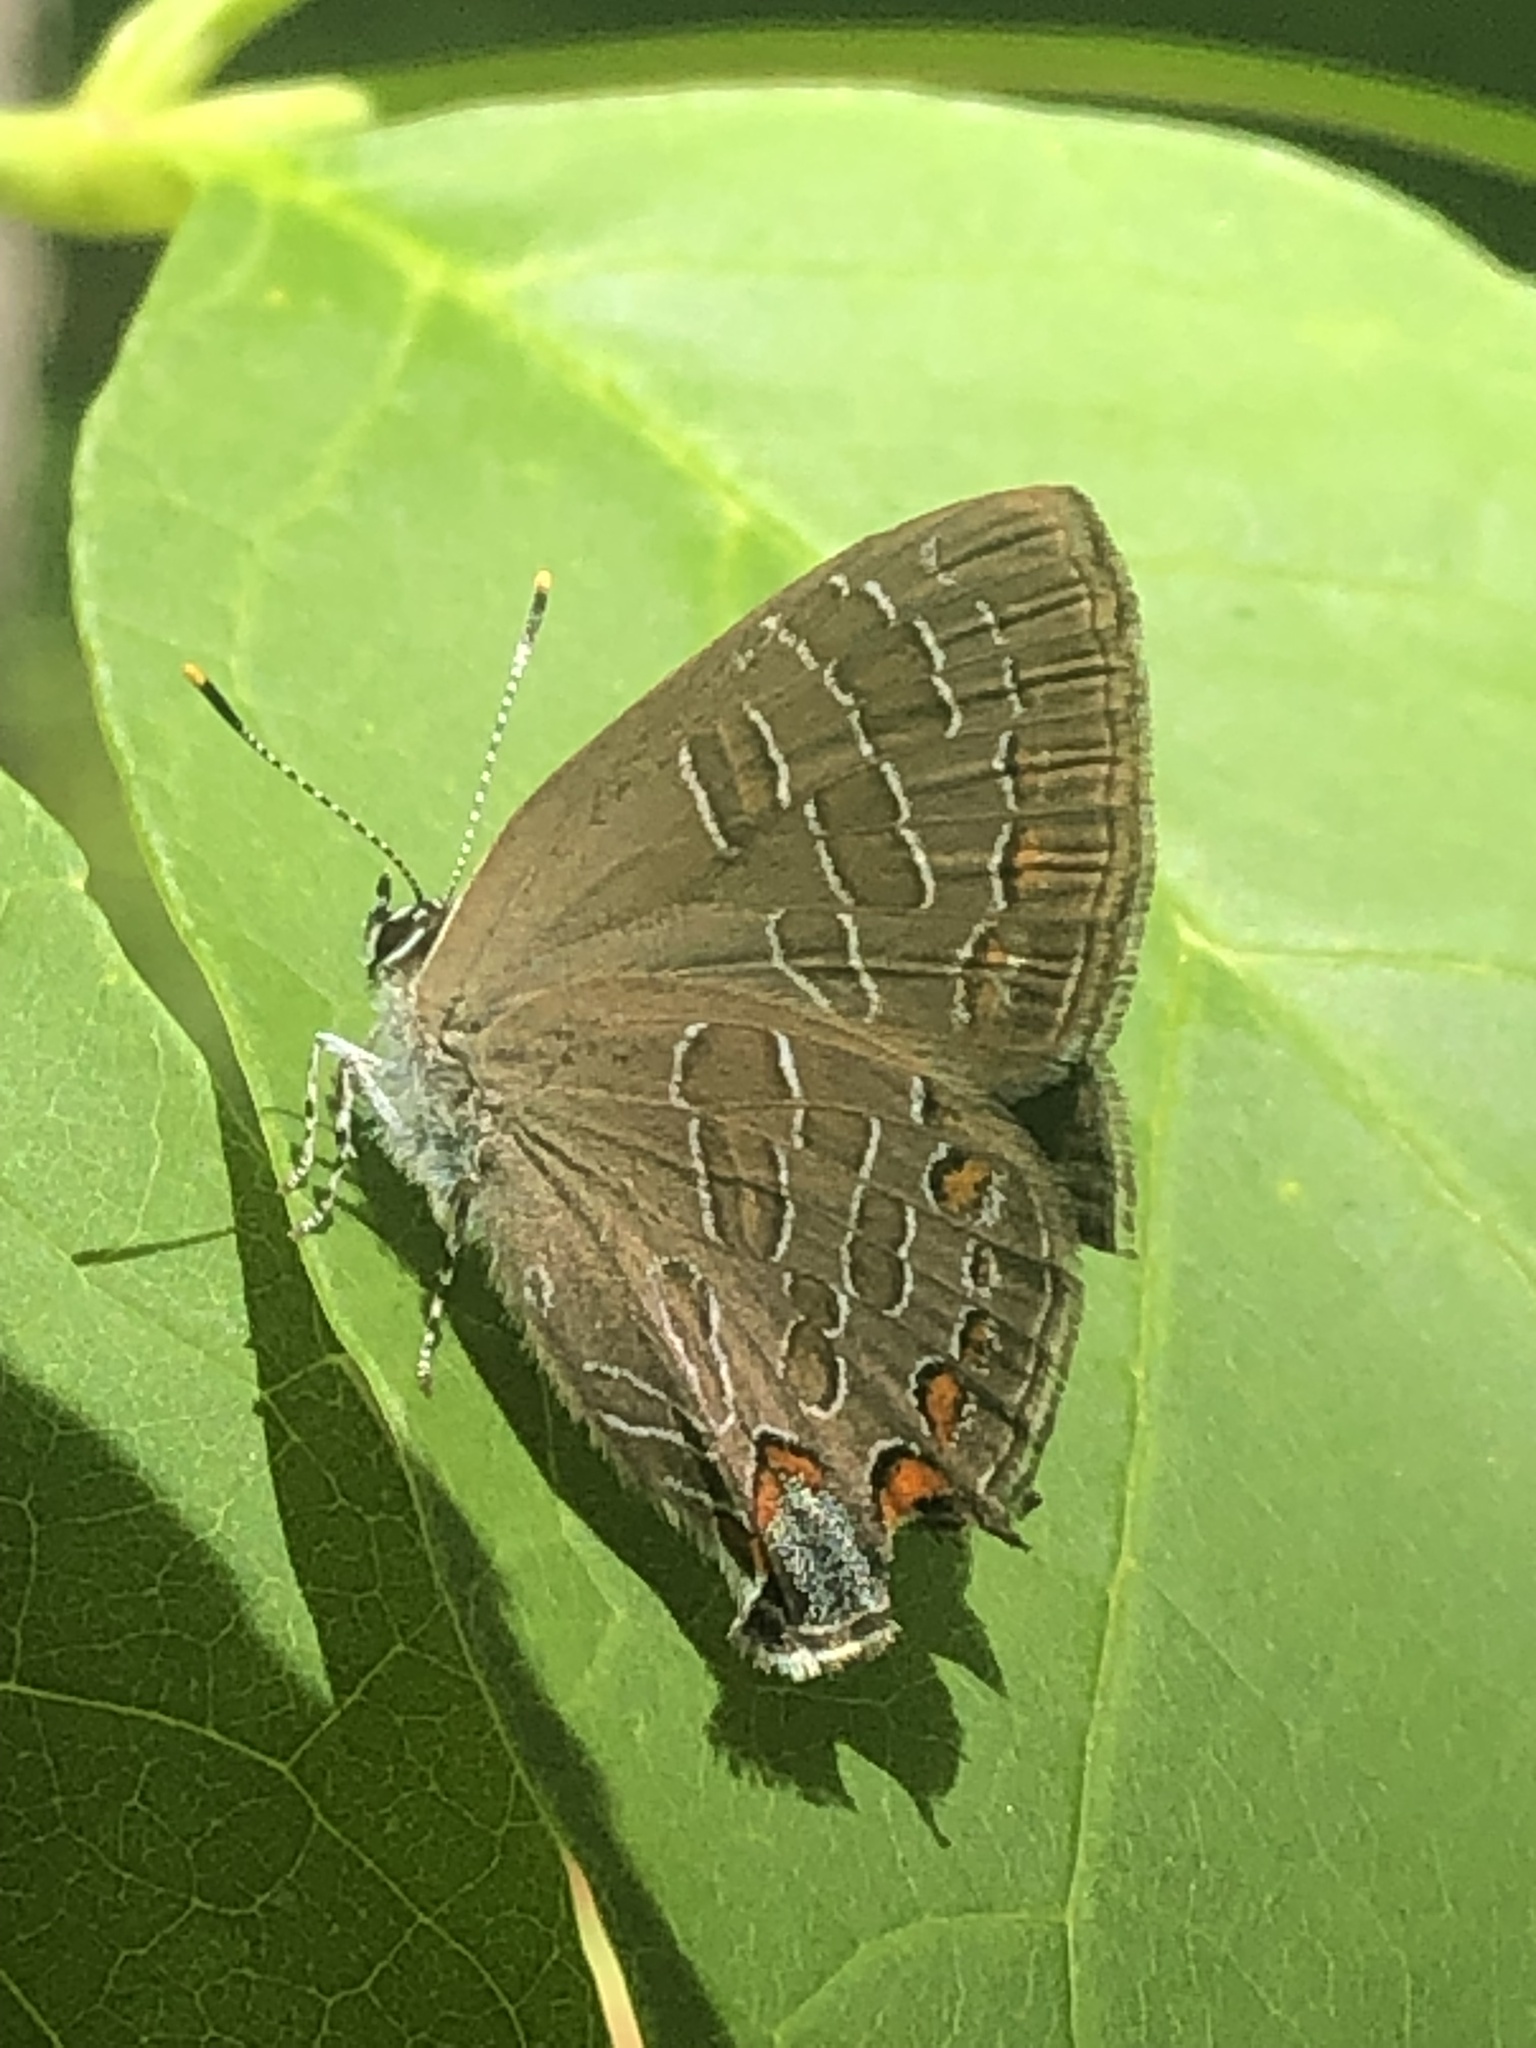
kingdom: Animalia
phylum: Arthropoda
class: Insecta
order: Lepidoptera
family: Lycaenidae
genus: Satyrium
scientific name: Satyrium liparops
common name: Striped hairstreak
